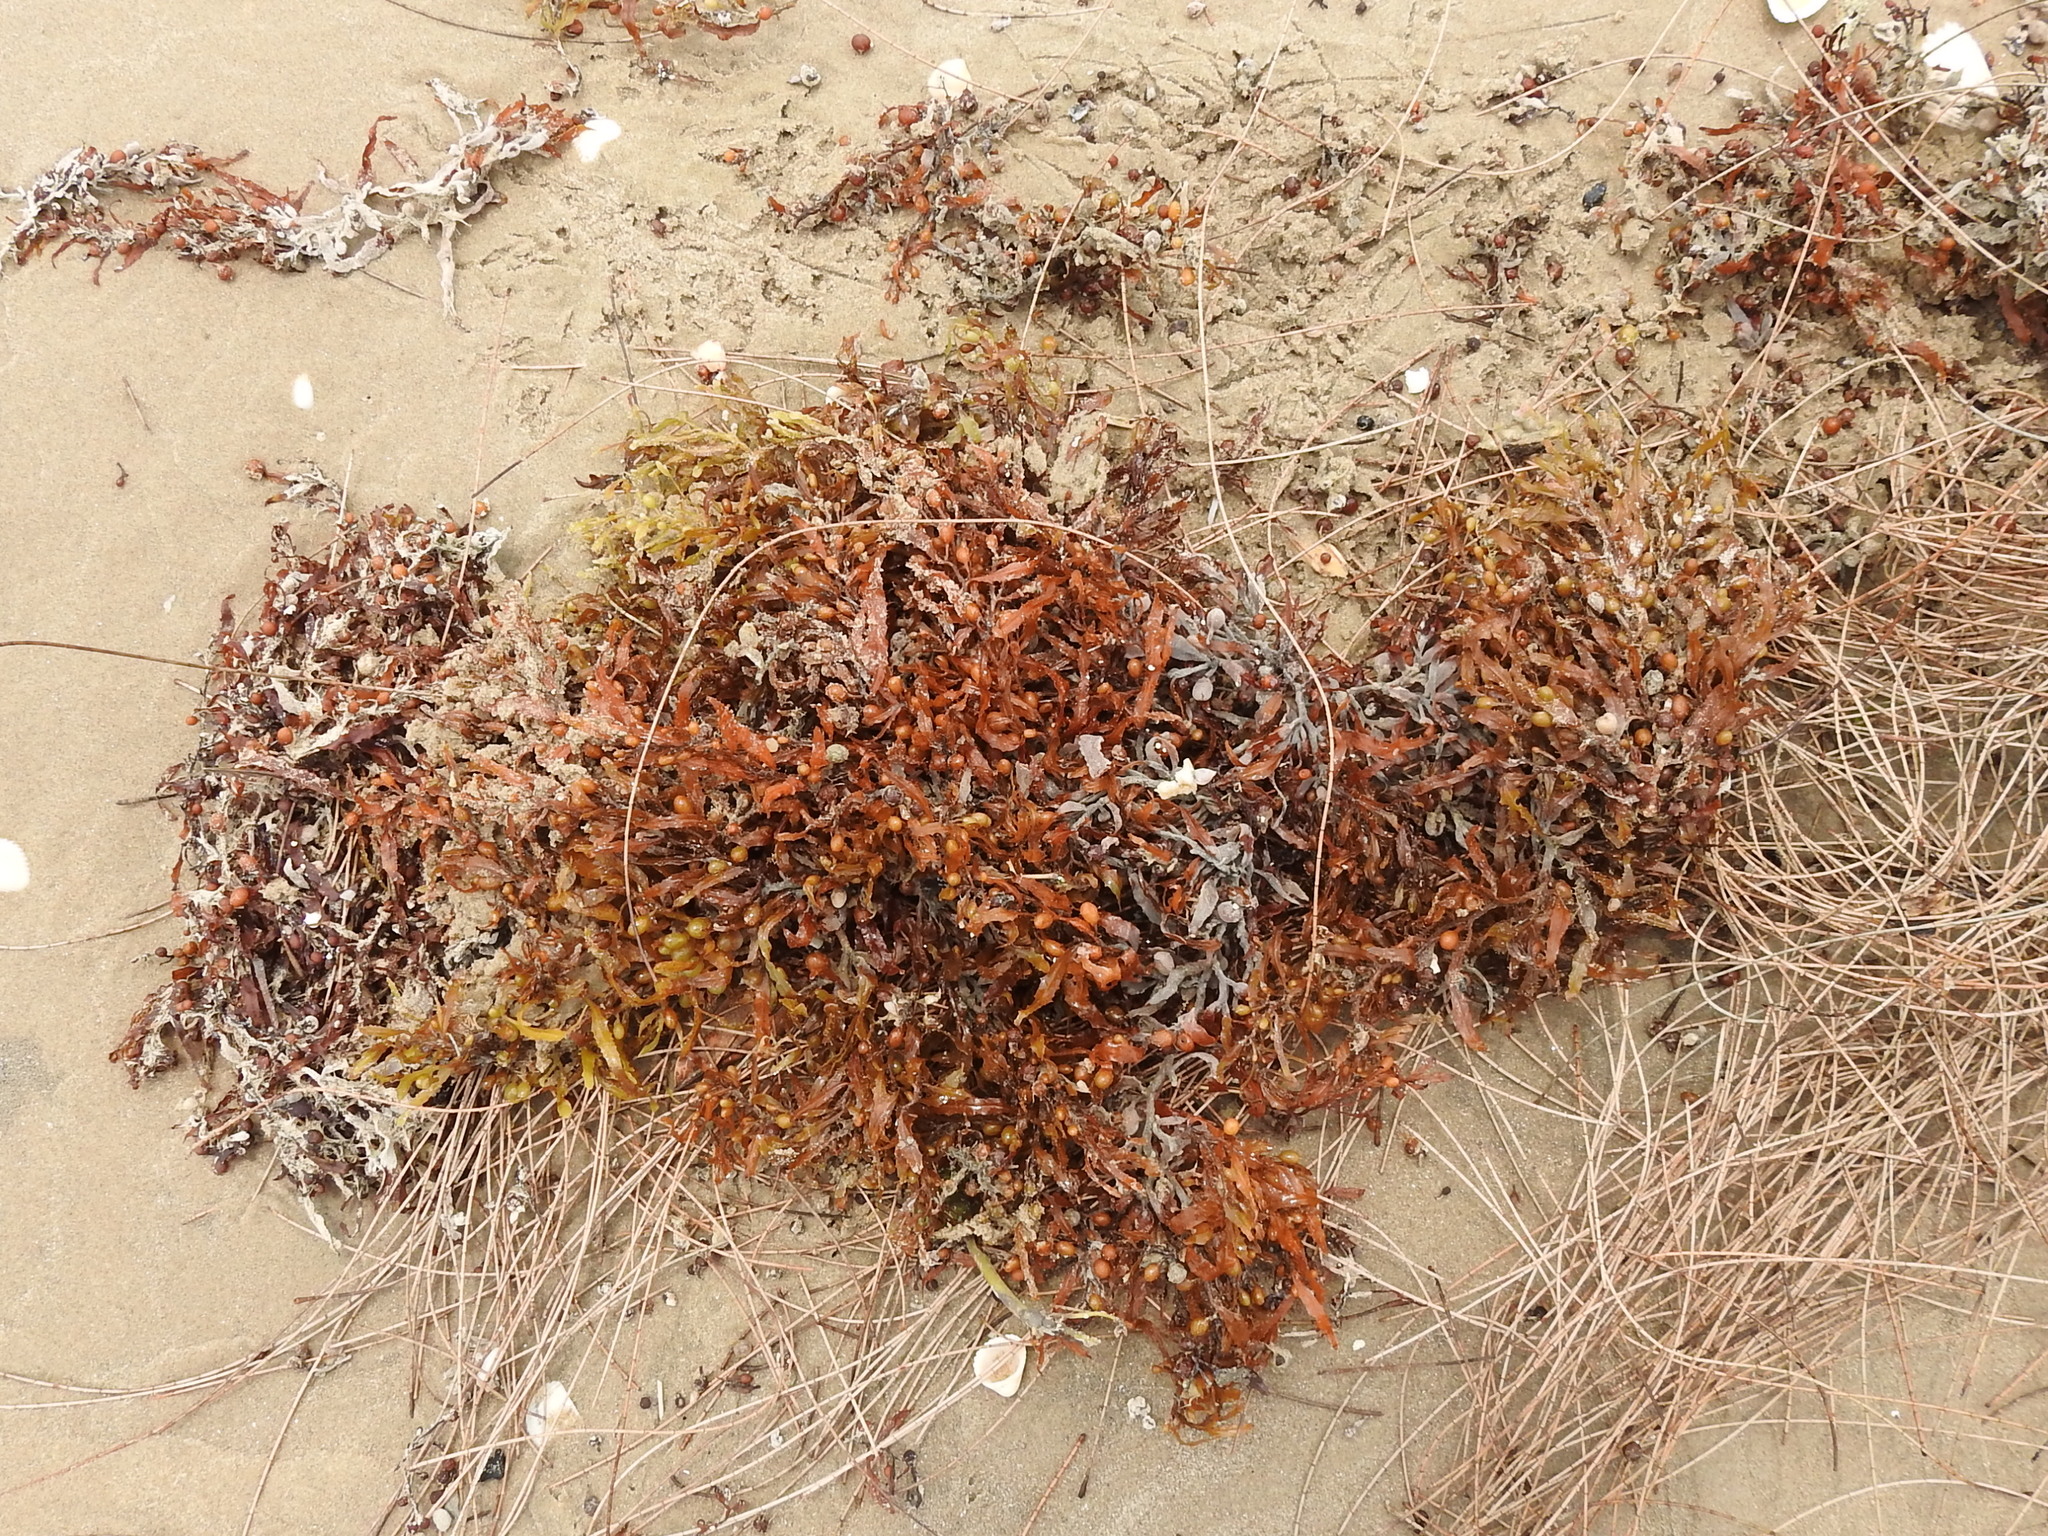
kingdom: Chromista
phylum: Ochrophyta
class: Phaeophyceae
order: Fucales
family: Sargassaceae
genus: Sargassum
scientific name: Sargassum fluitans
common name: Sargassum seaweed
